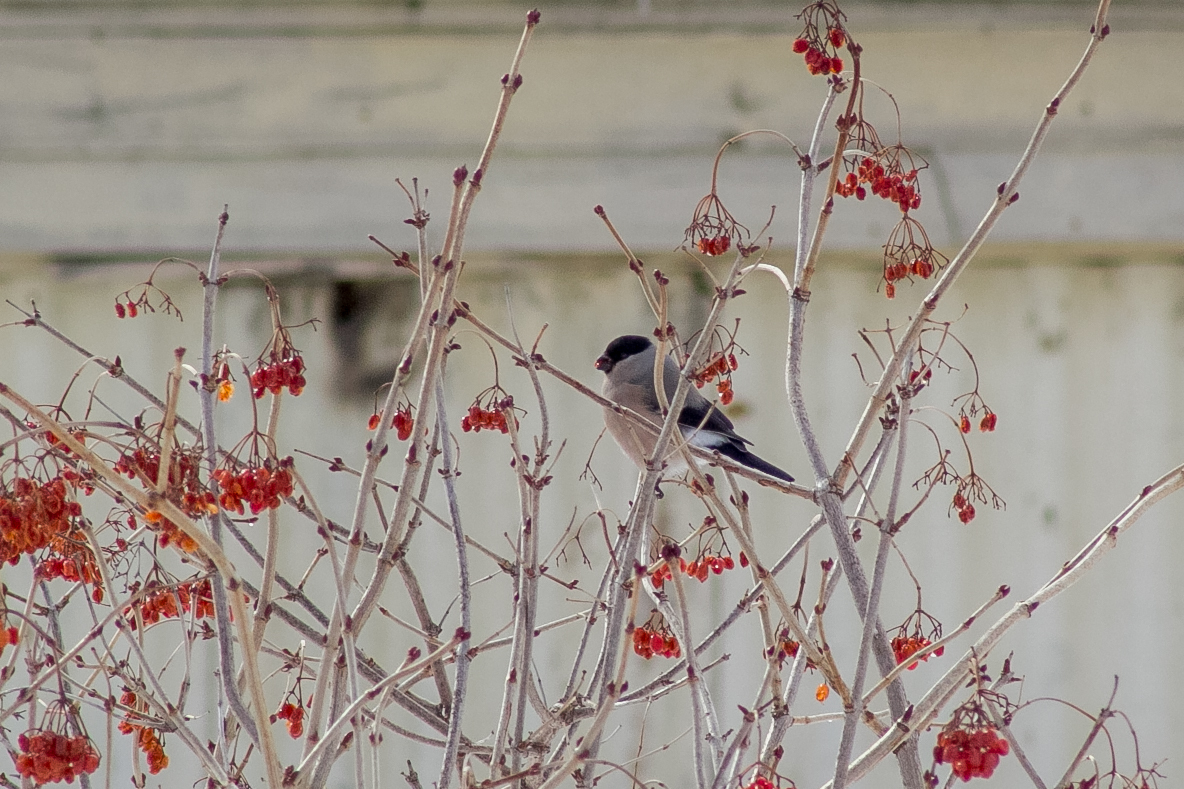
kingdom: Animalia
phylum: Chordata
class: Aves
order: Passeriformes
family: Fringillidae
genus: Pyrrhula
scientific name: Pyrrhula pyrrhula
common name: Eurasian bullfinch
